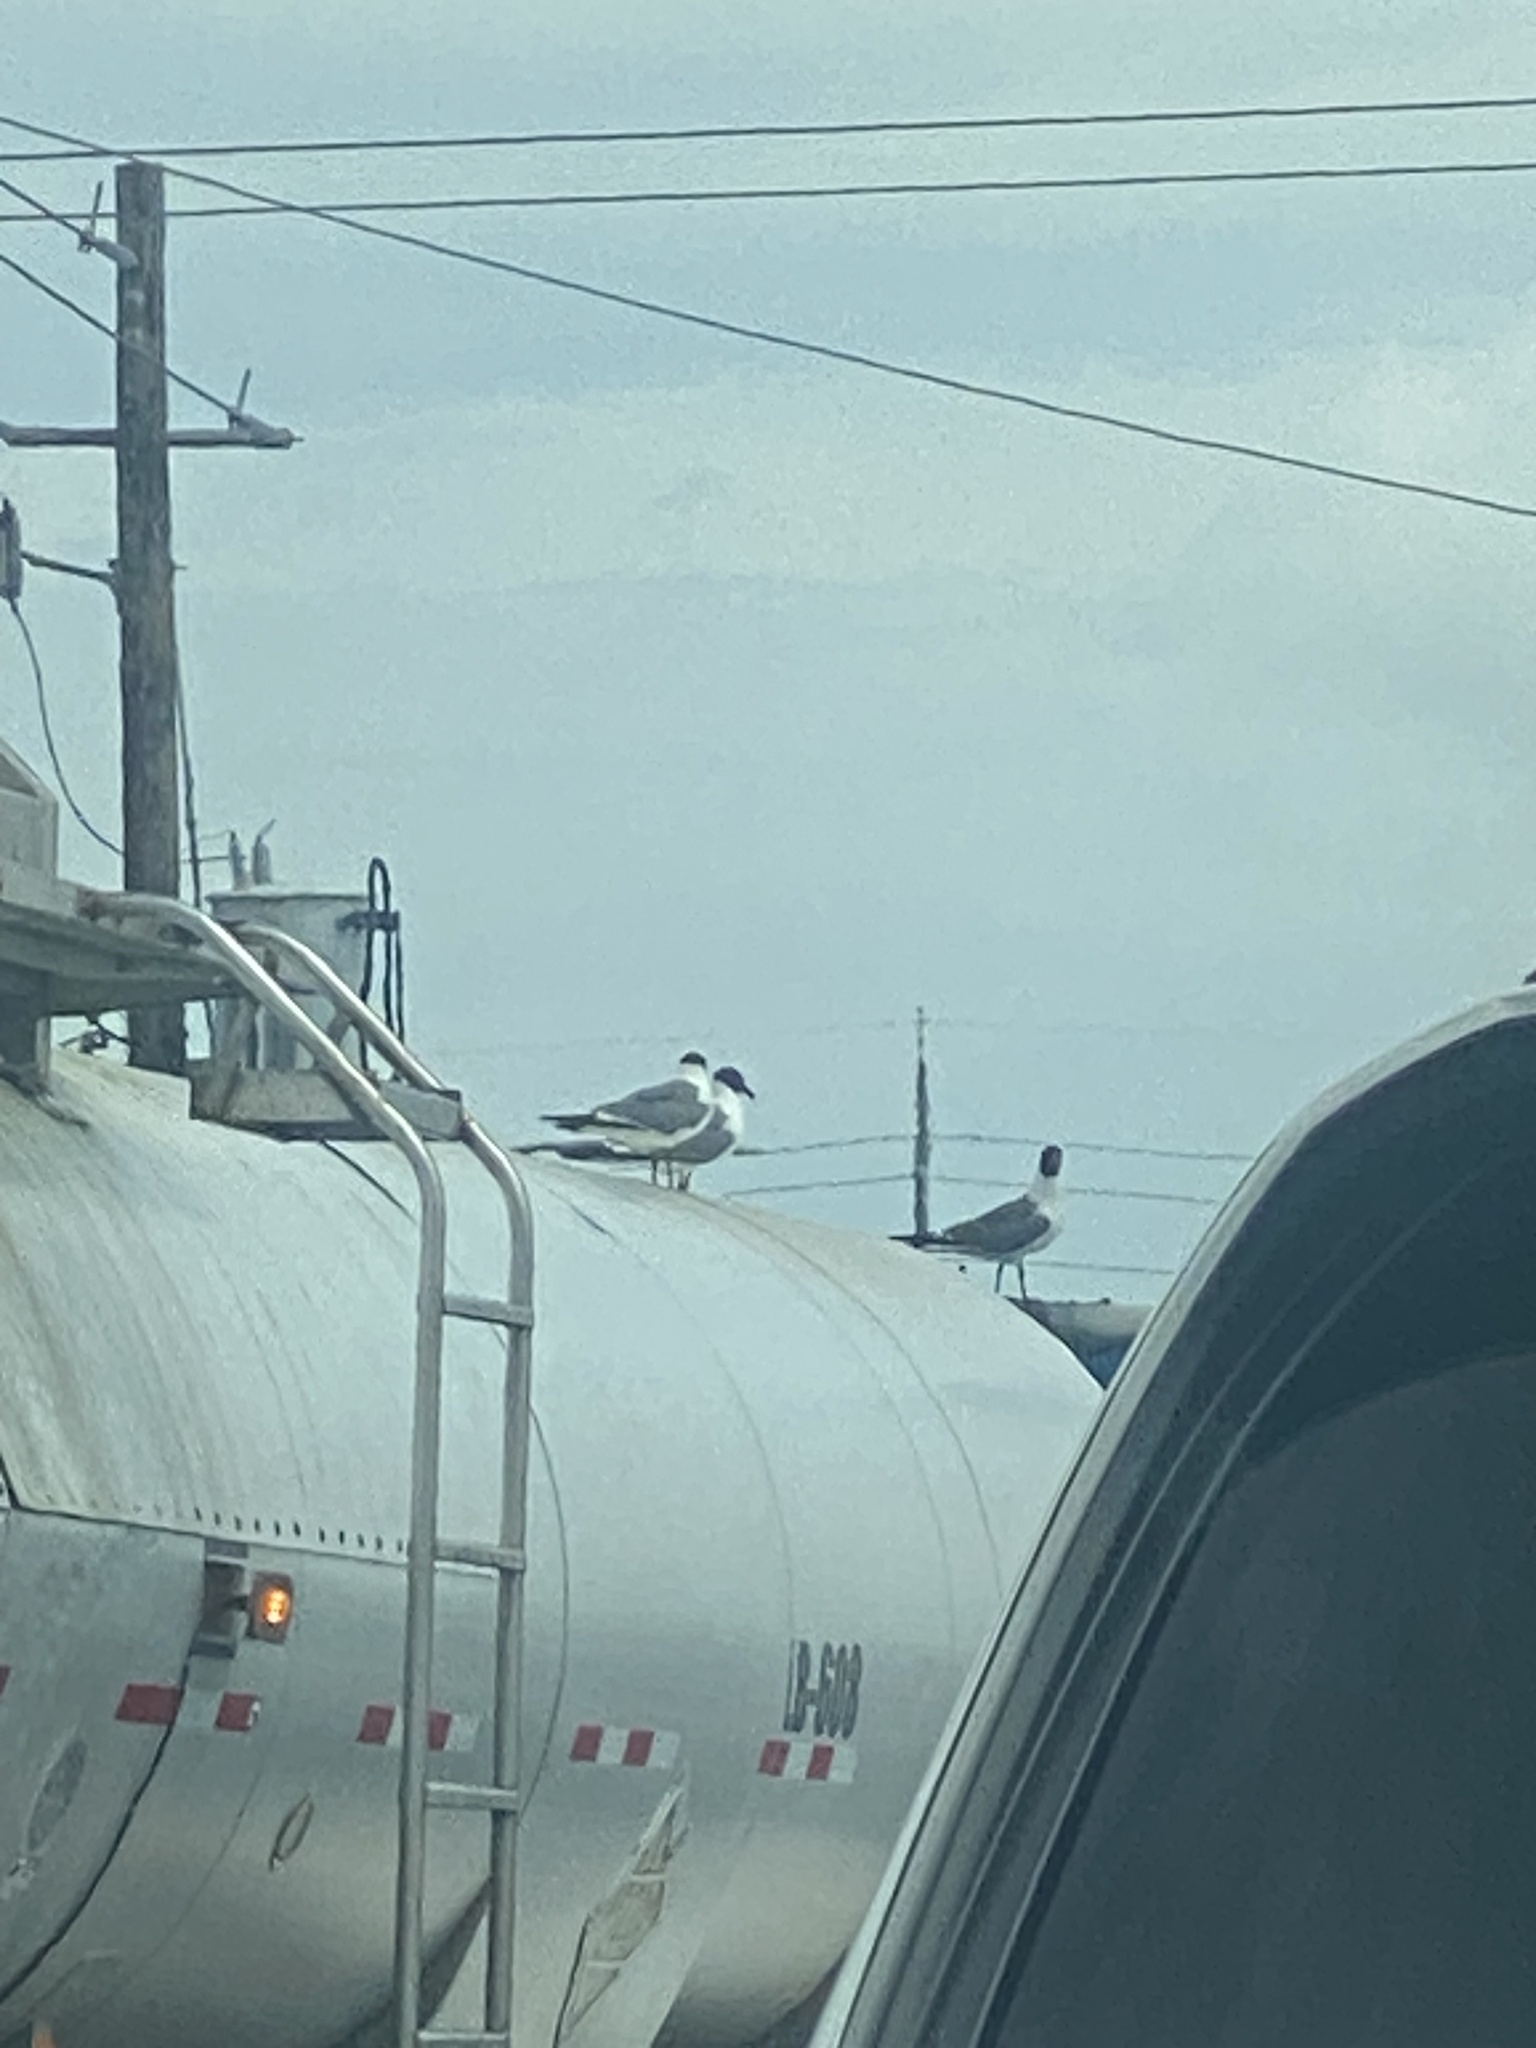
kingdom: Animalia
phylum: Chordata
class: Aves
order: Charadriiformes
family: Laridae
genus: Leucophaeus
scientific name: Leucophaeus atricilla
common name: Laughing gull
